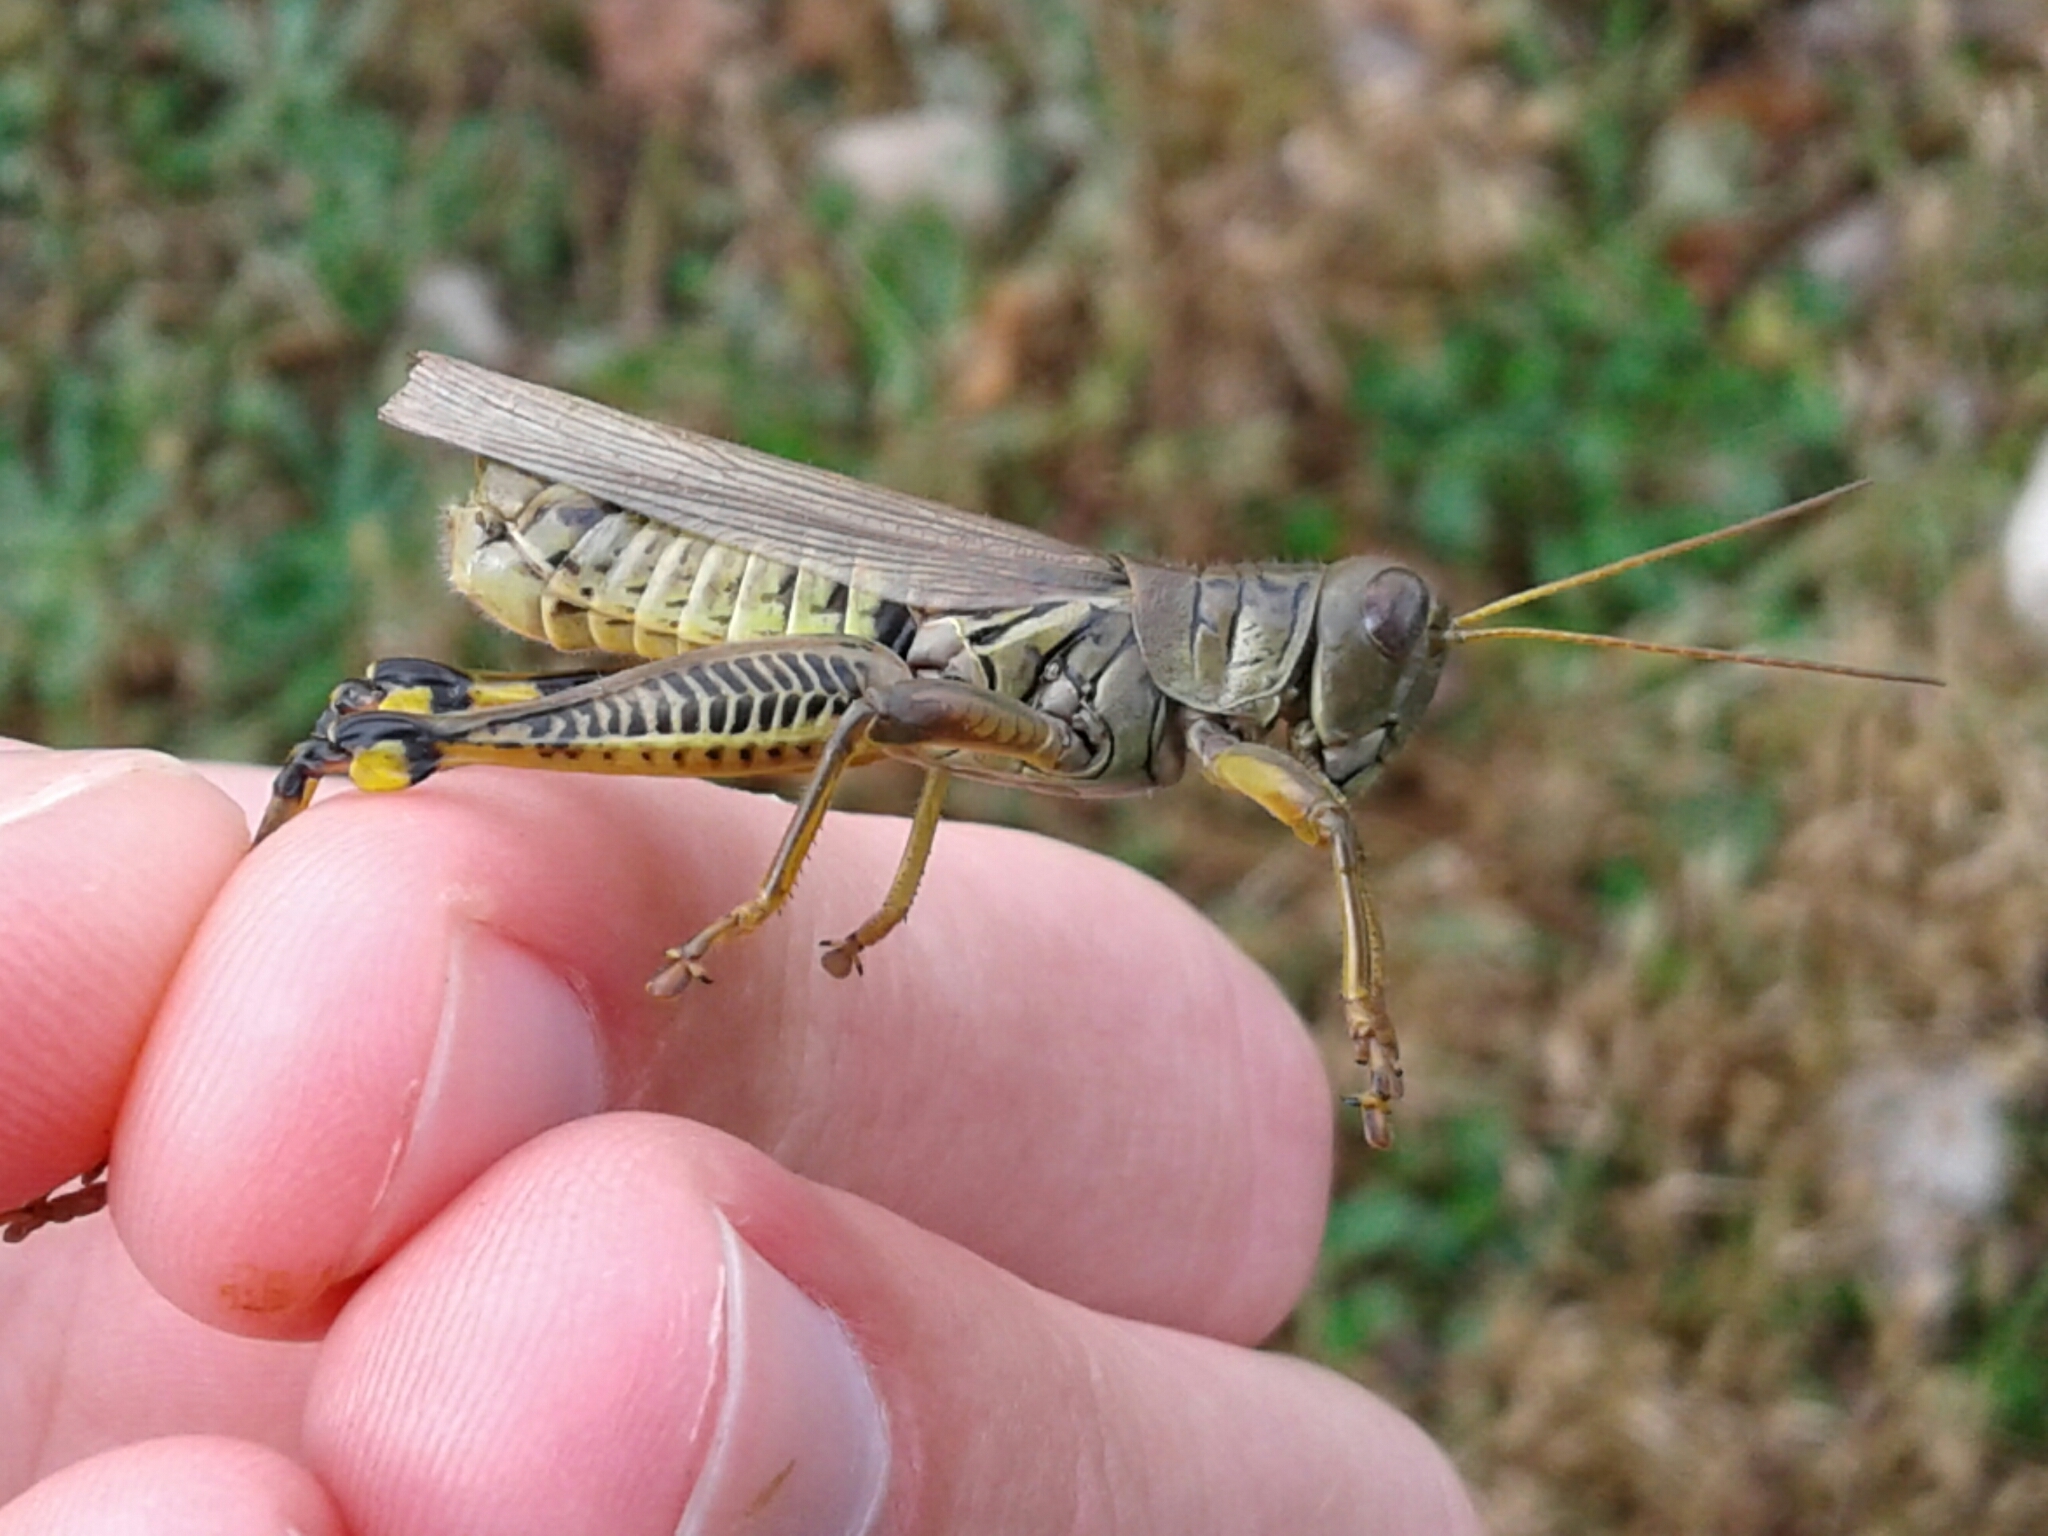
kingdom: Animalia
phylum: Arthropoda
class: Insecta
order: Orthoptera
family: Acrididae
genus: Melanoplus
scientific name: Melanoplus differentialis
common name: Differential grasshopper
